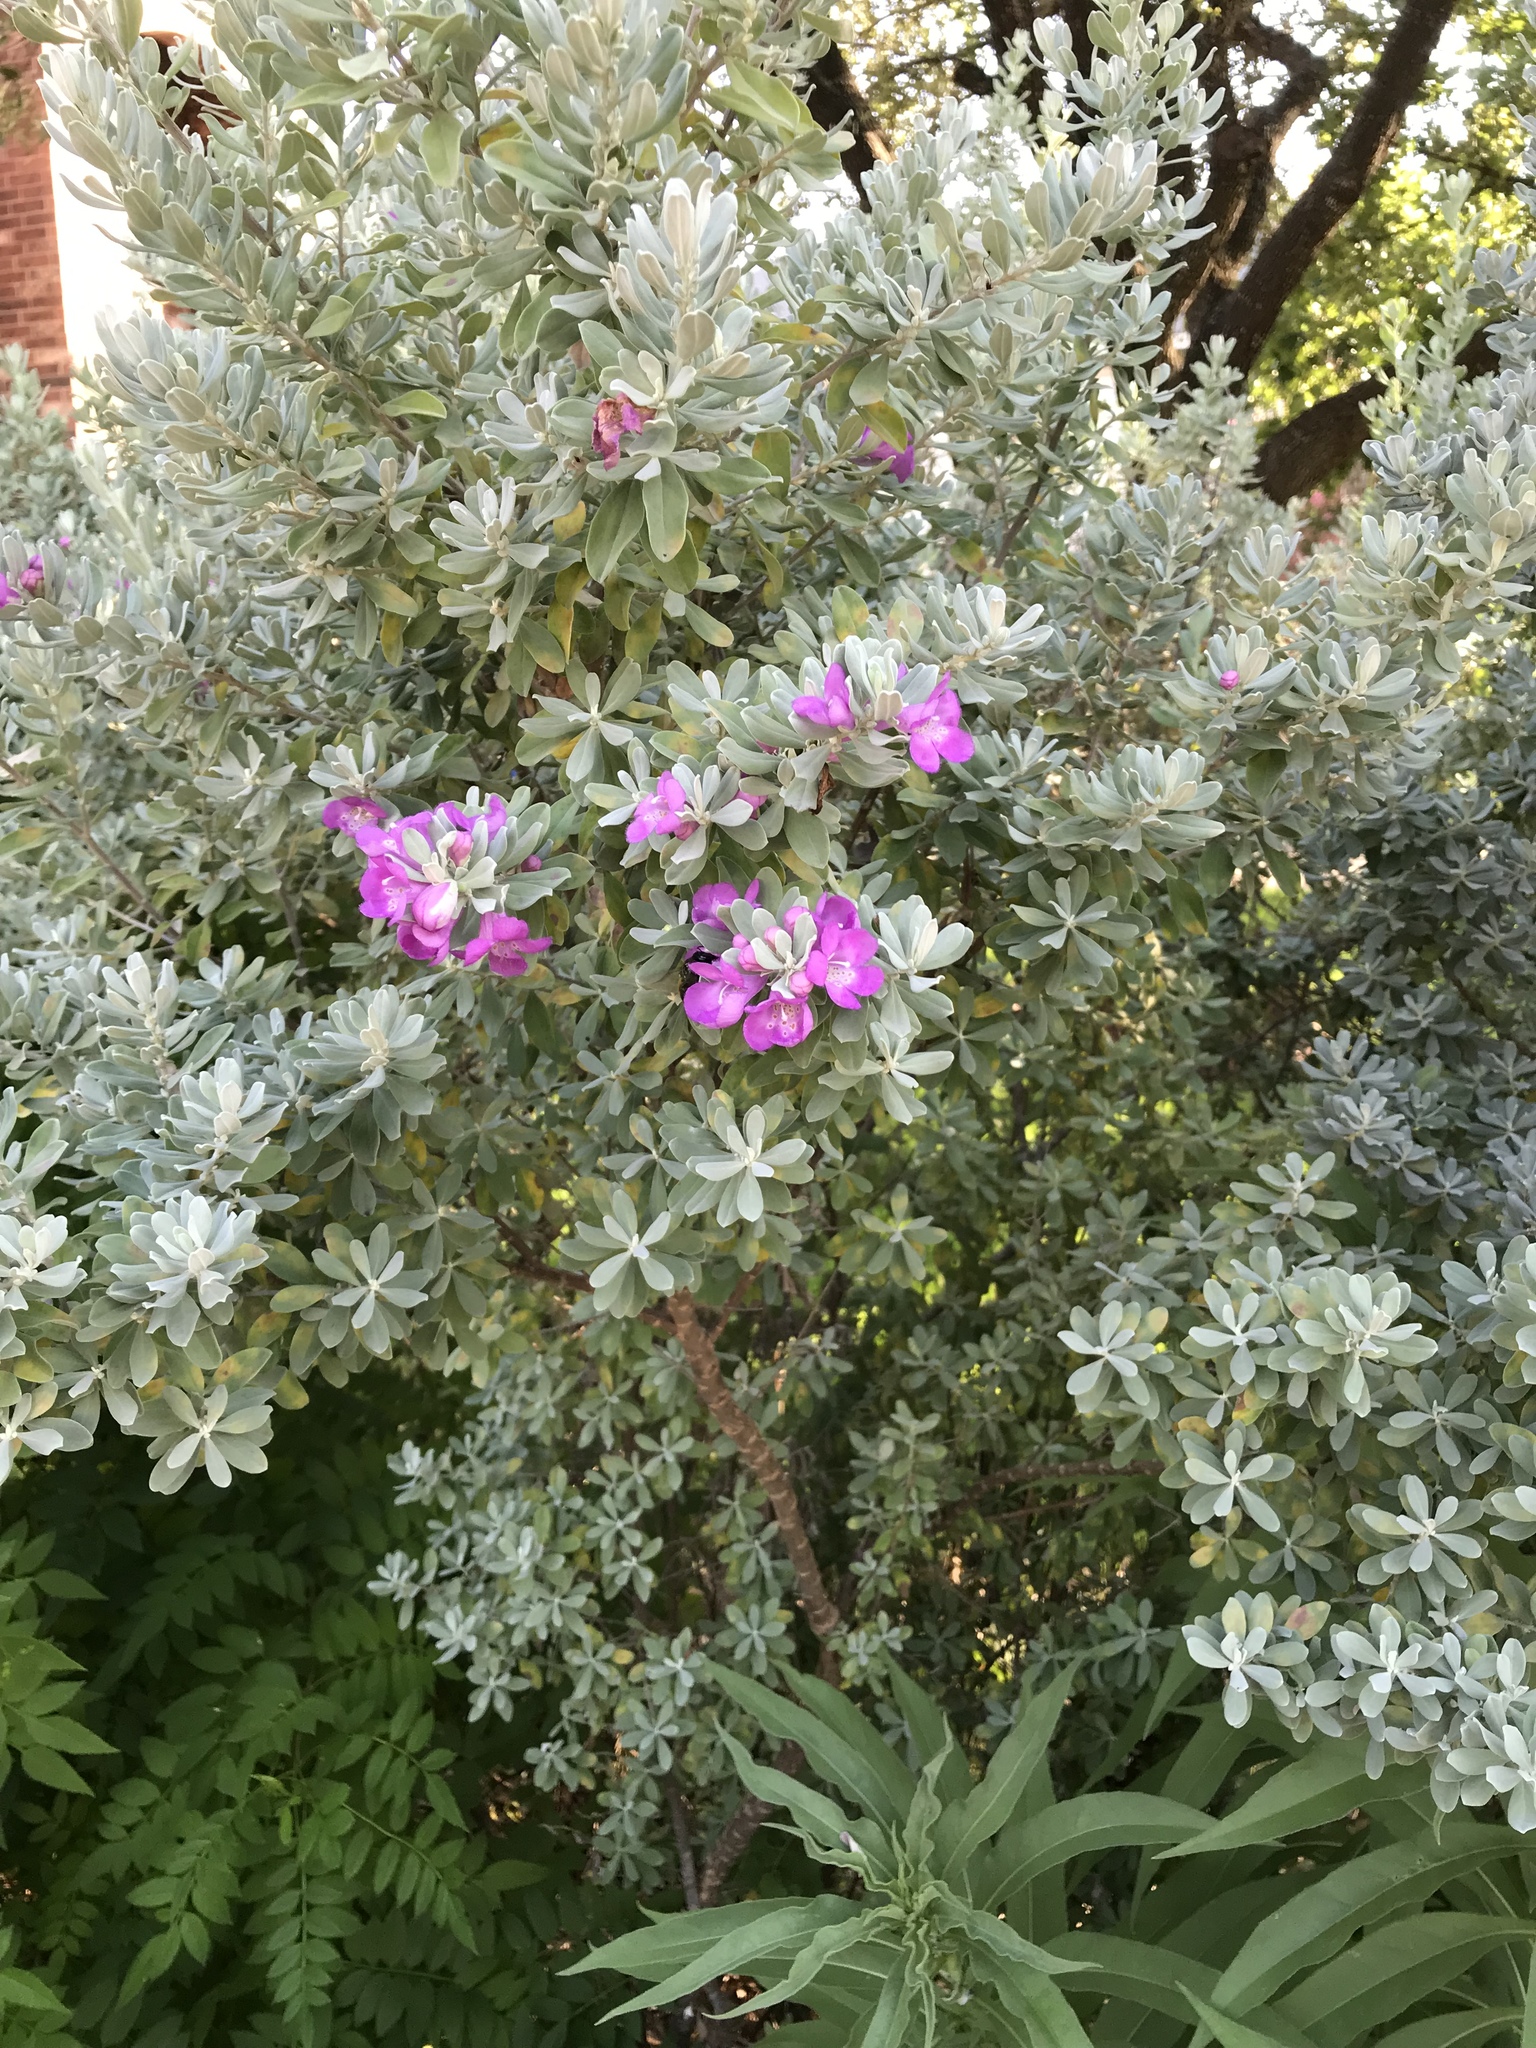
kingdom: Animalia
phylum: Arthropoda
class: Insecta
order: Hymenoptera
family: Apidae
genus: Xylocopa
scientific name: Xylocopa tabaniformis
